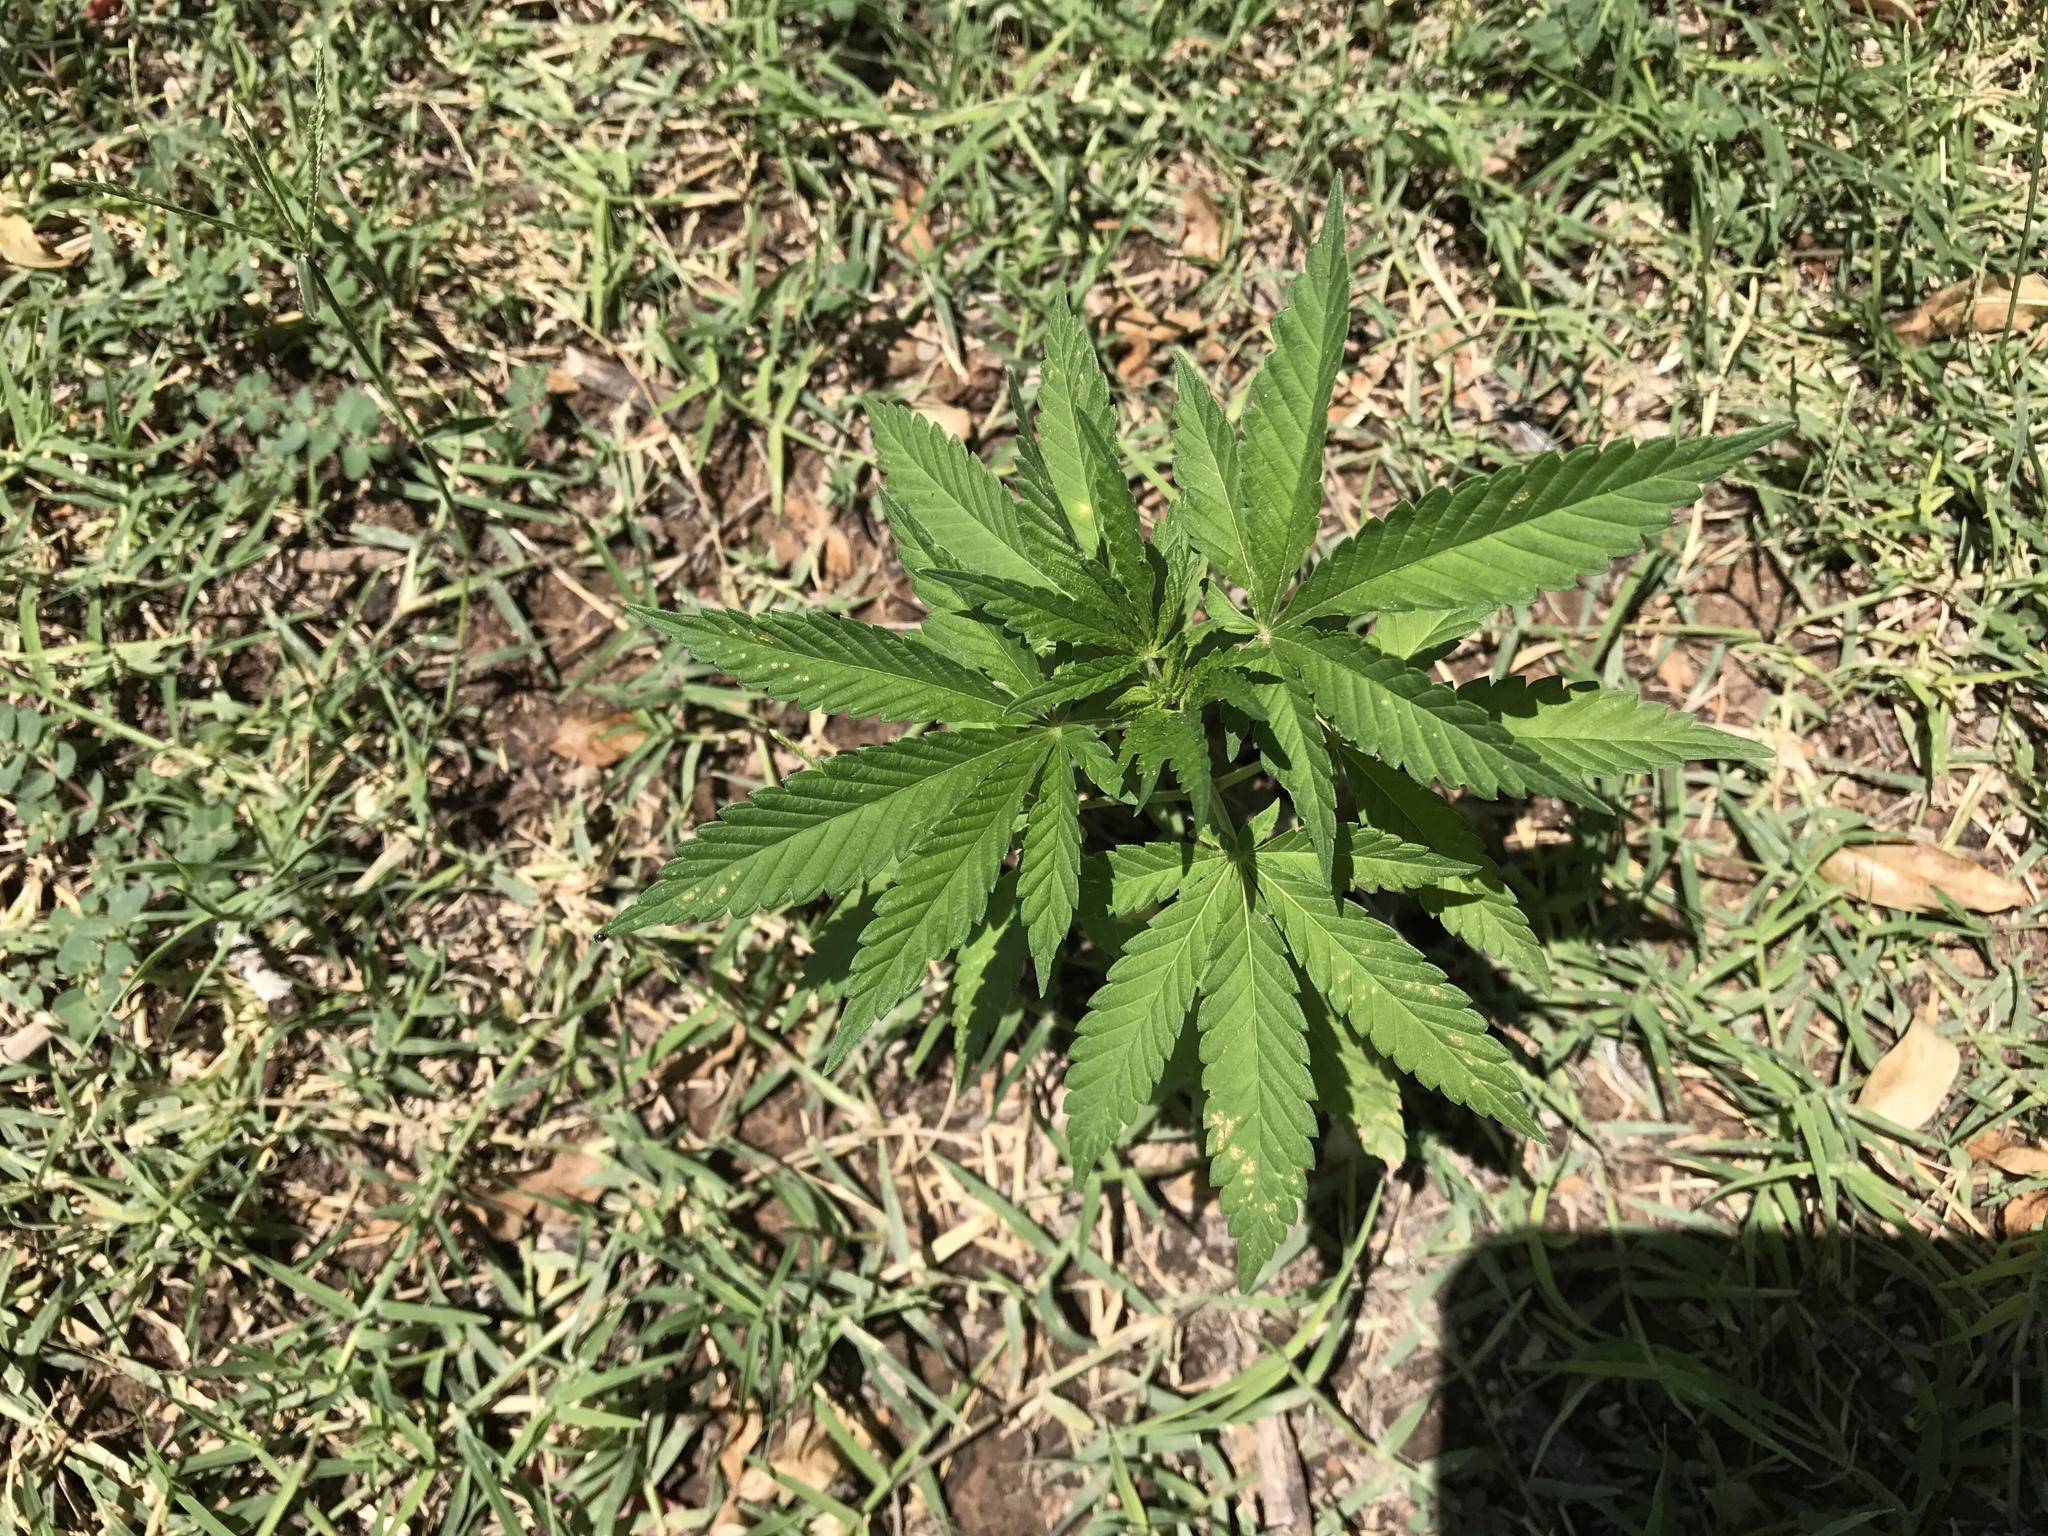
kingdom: Plantae
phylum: Tracheophyta
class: Magnoliopsida
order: Rosales
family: Cannabaceae
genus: Cannabis
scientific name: Cannabis sativa
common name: Hemp
